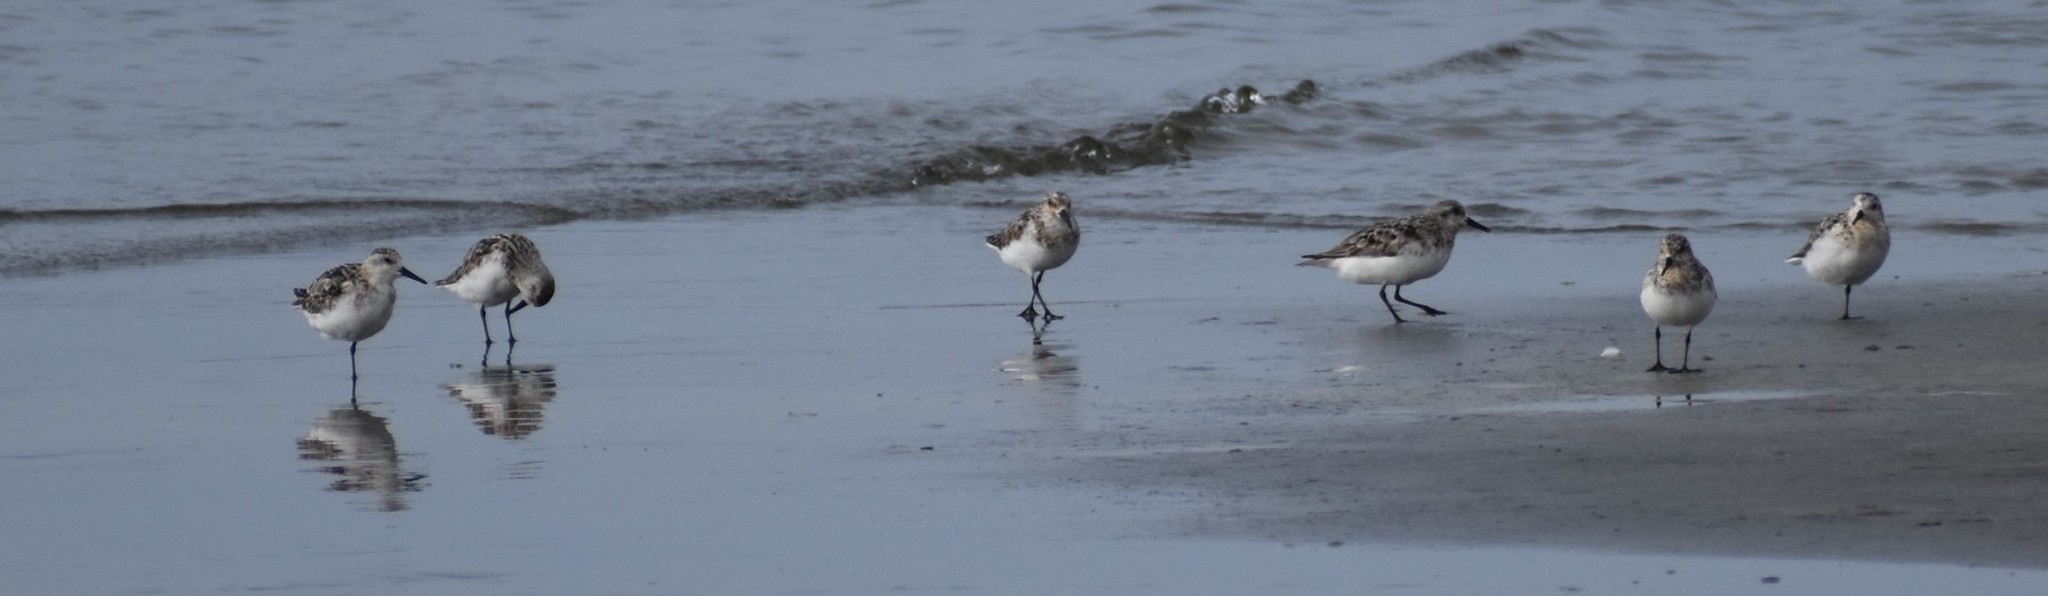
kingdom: Animalia
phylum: Chordata
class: Aves
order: Charadriiformes
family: Scolopacidae
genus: Calidris
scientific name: Calidris alba
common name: Sanderling
